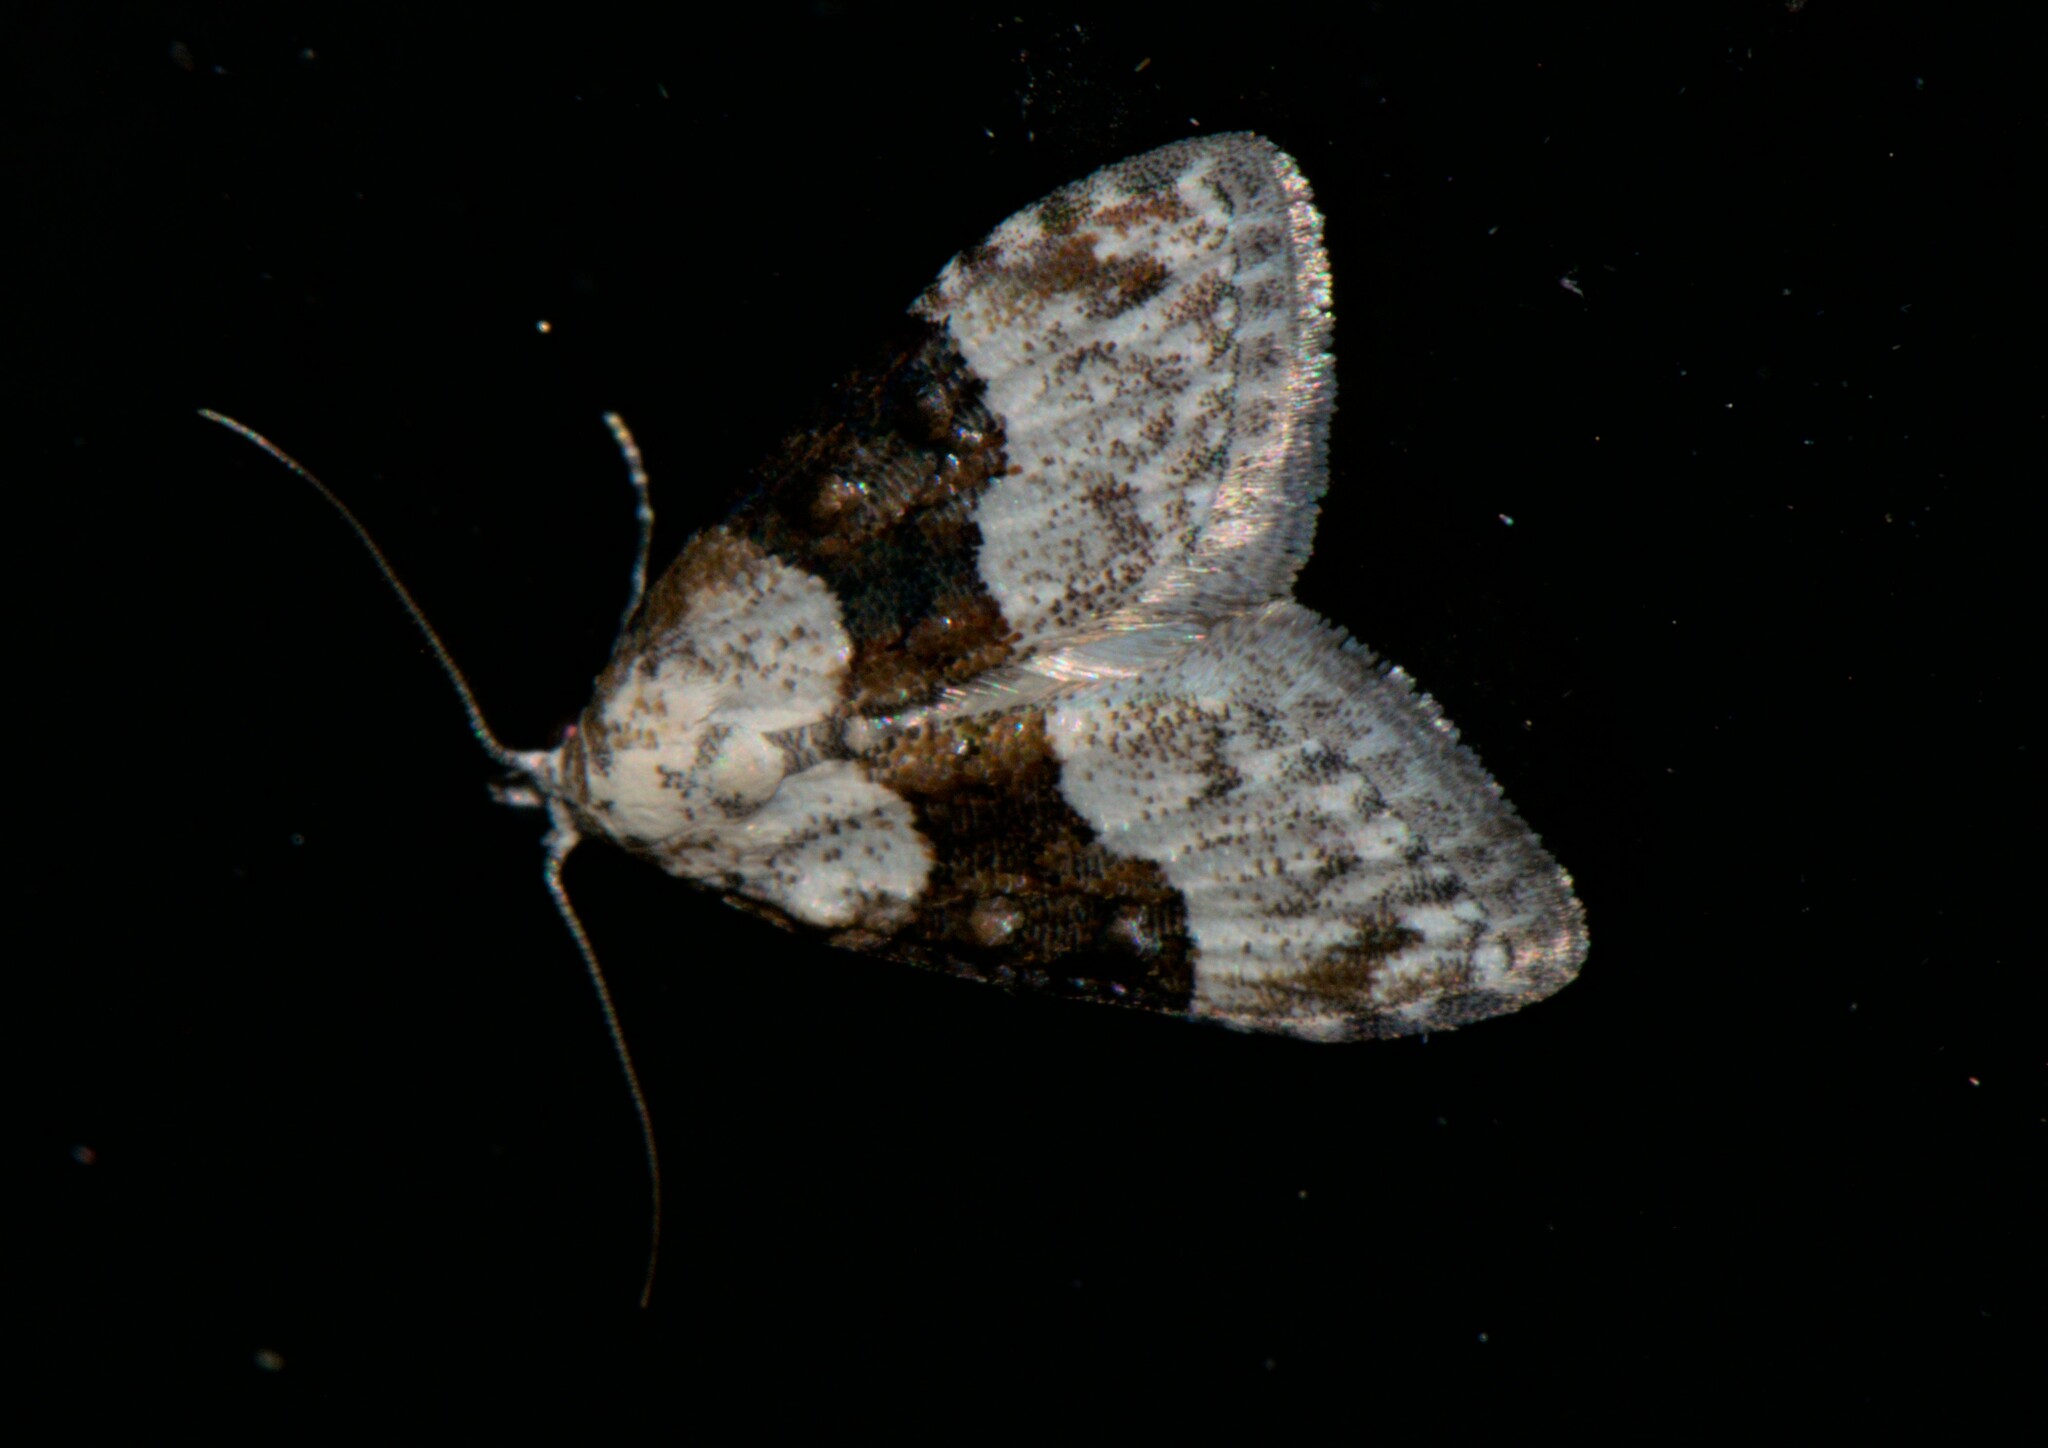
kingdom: Animalia
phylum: Arthropoda
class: Insecta
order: Lepidoptera
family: Nolidae
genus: Nola
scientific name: Nola atrocincta
